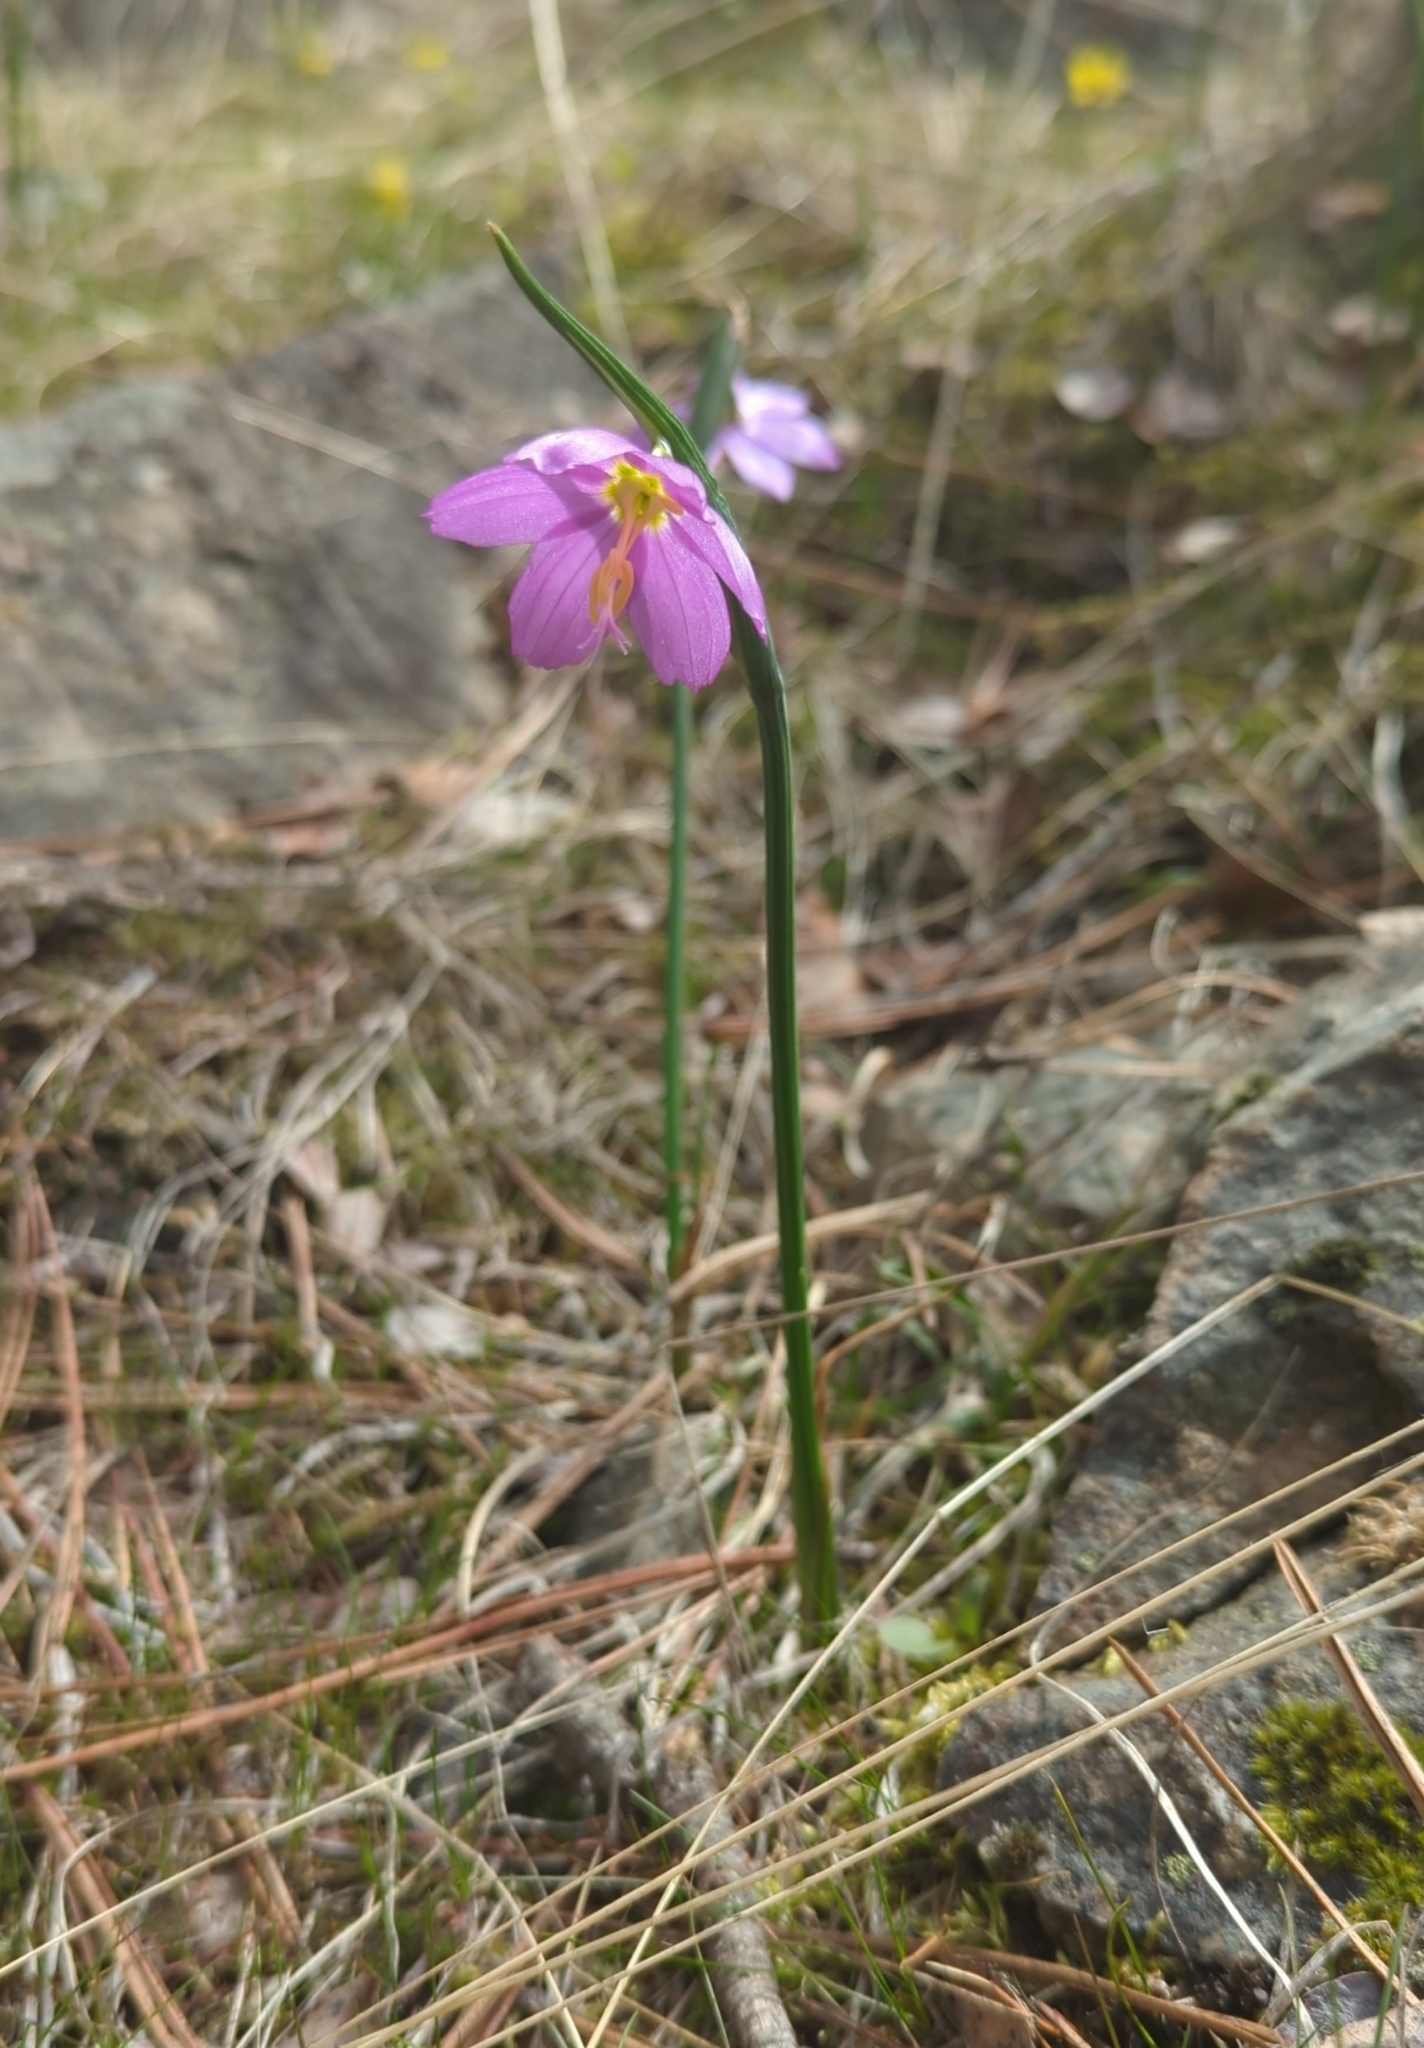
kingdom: Plantae
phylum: Tracheophyta
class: Liliopsida
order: Asparagales
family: Iridaceae
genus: Olsynium
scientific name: Olsynium douglasii
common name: Douglas' grasswidow
